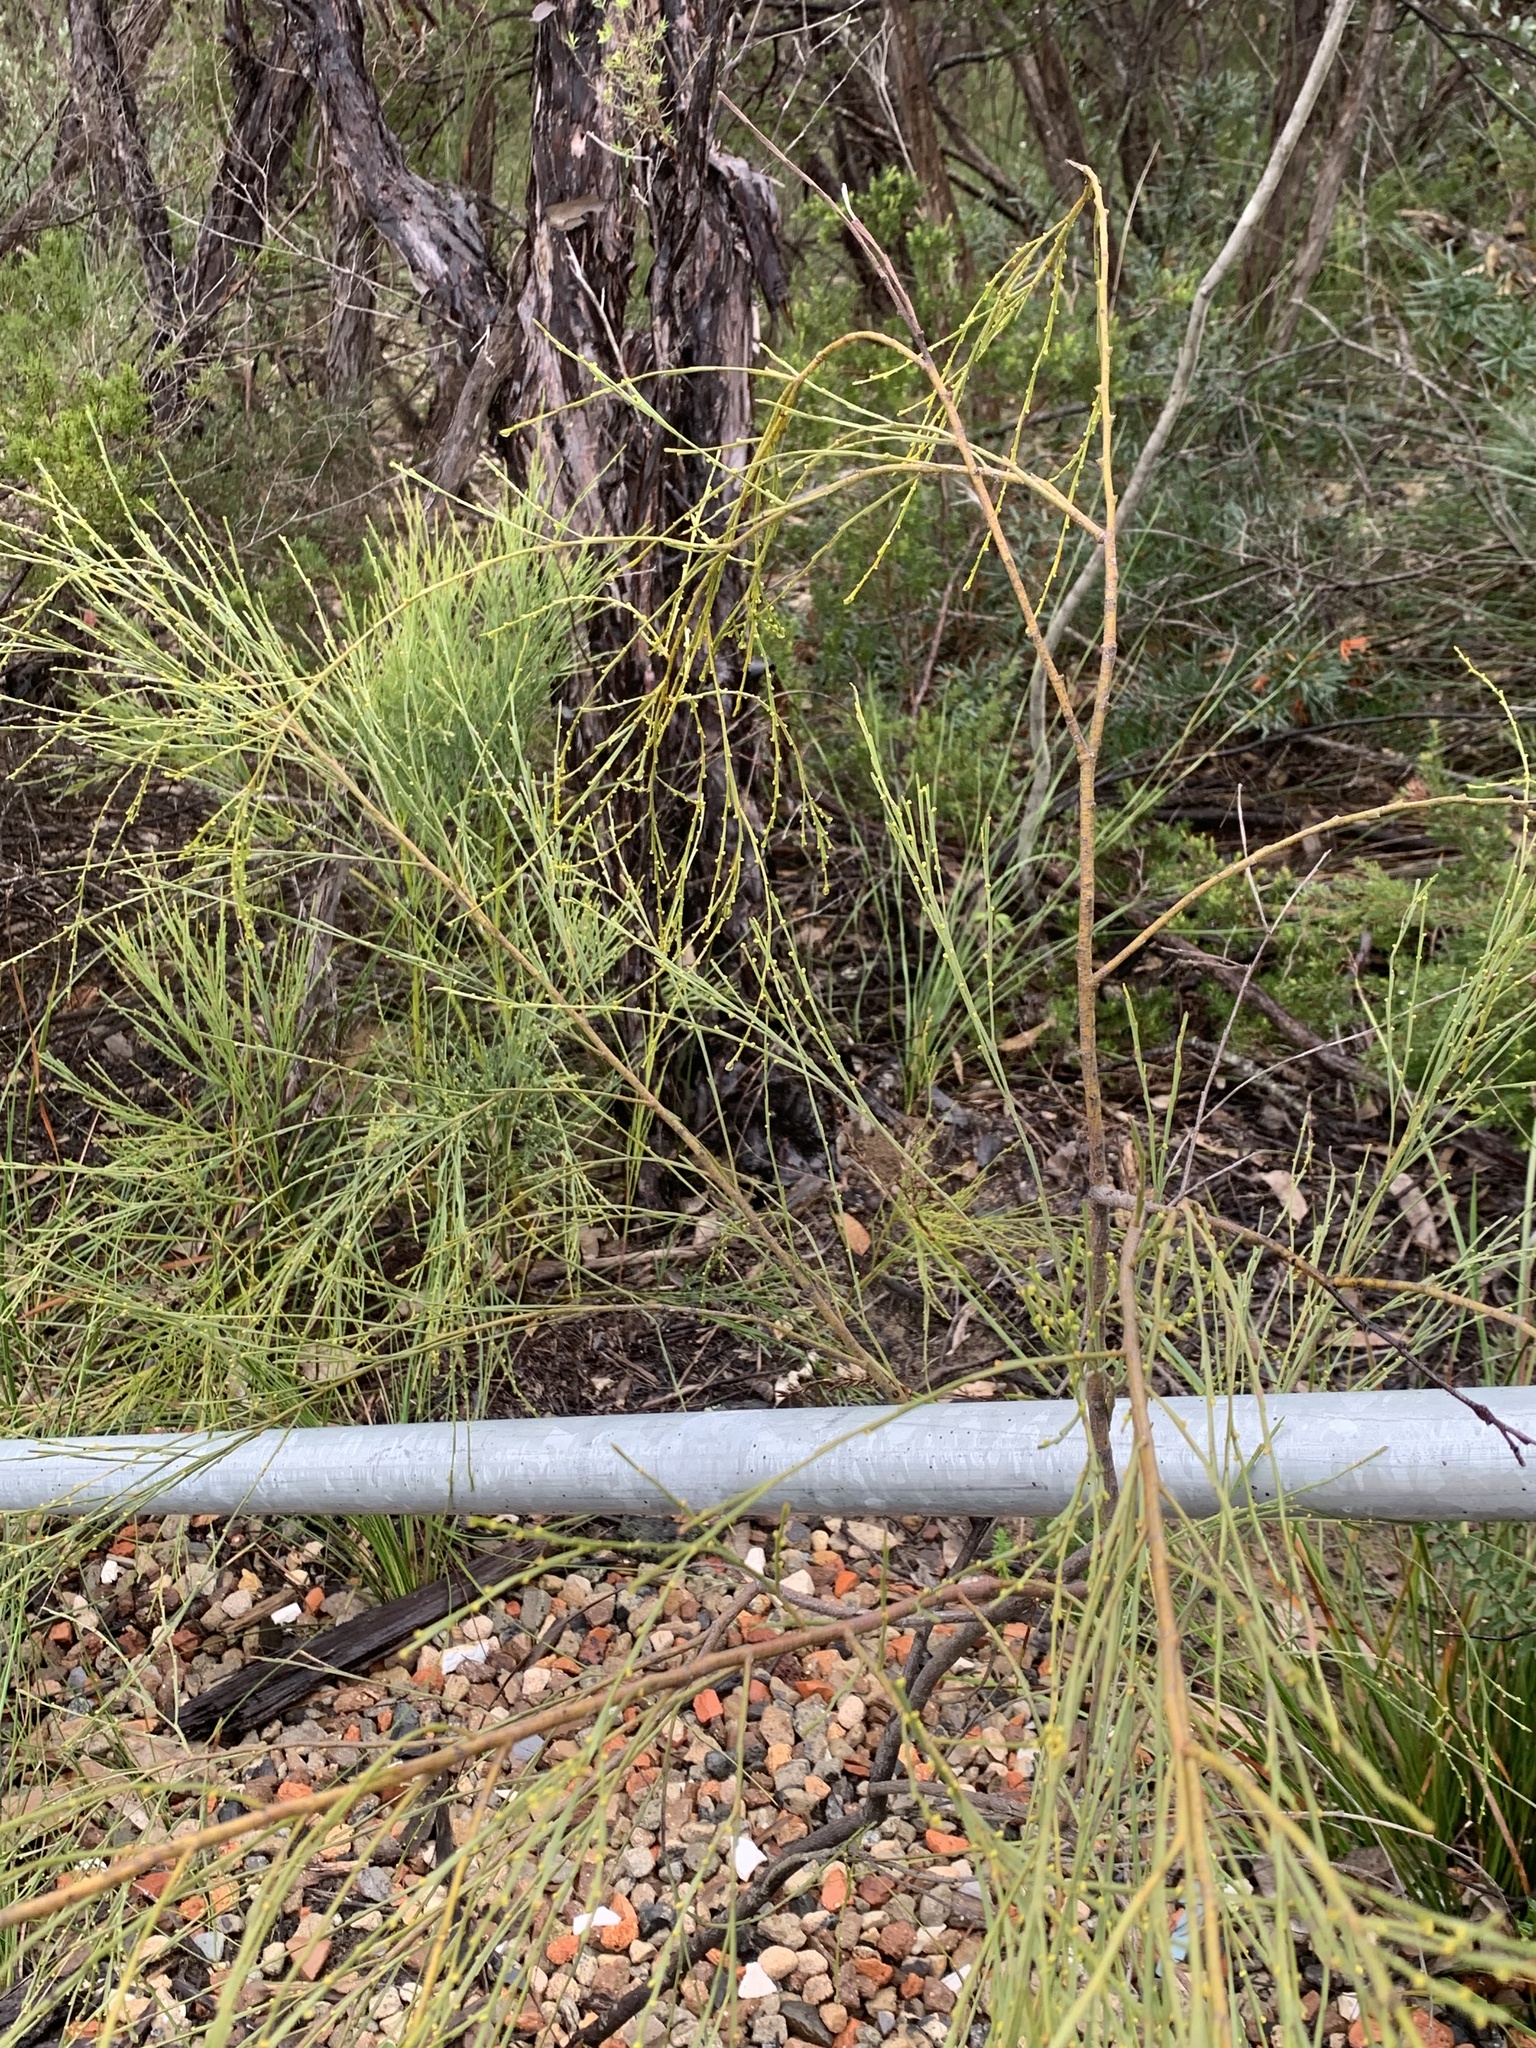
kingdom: Plantae
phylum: Tracheophyta
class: Magnoliopsida
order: Santalales
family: Santalaceae
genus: Exocarpos
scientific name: Exocarpos strictus
